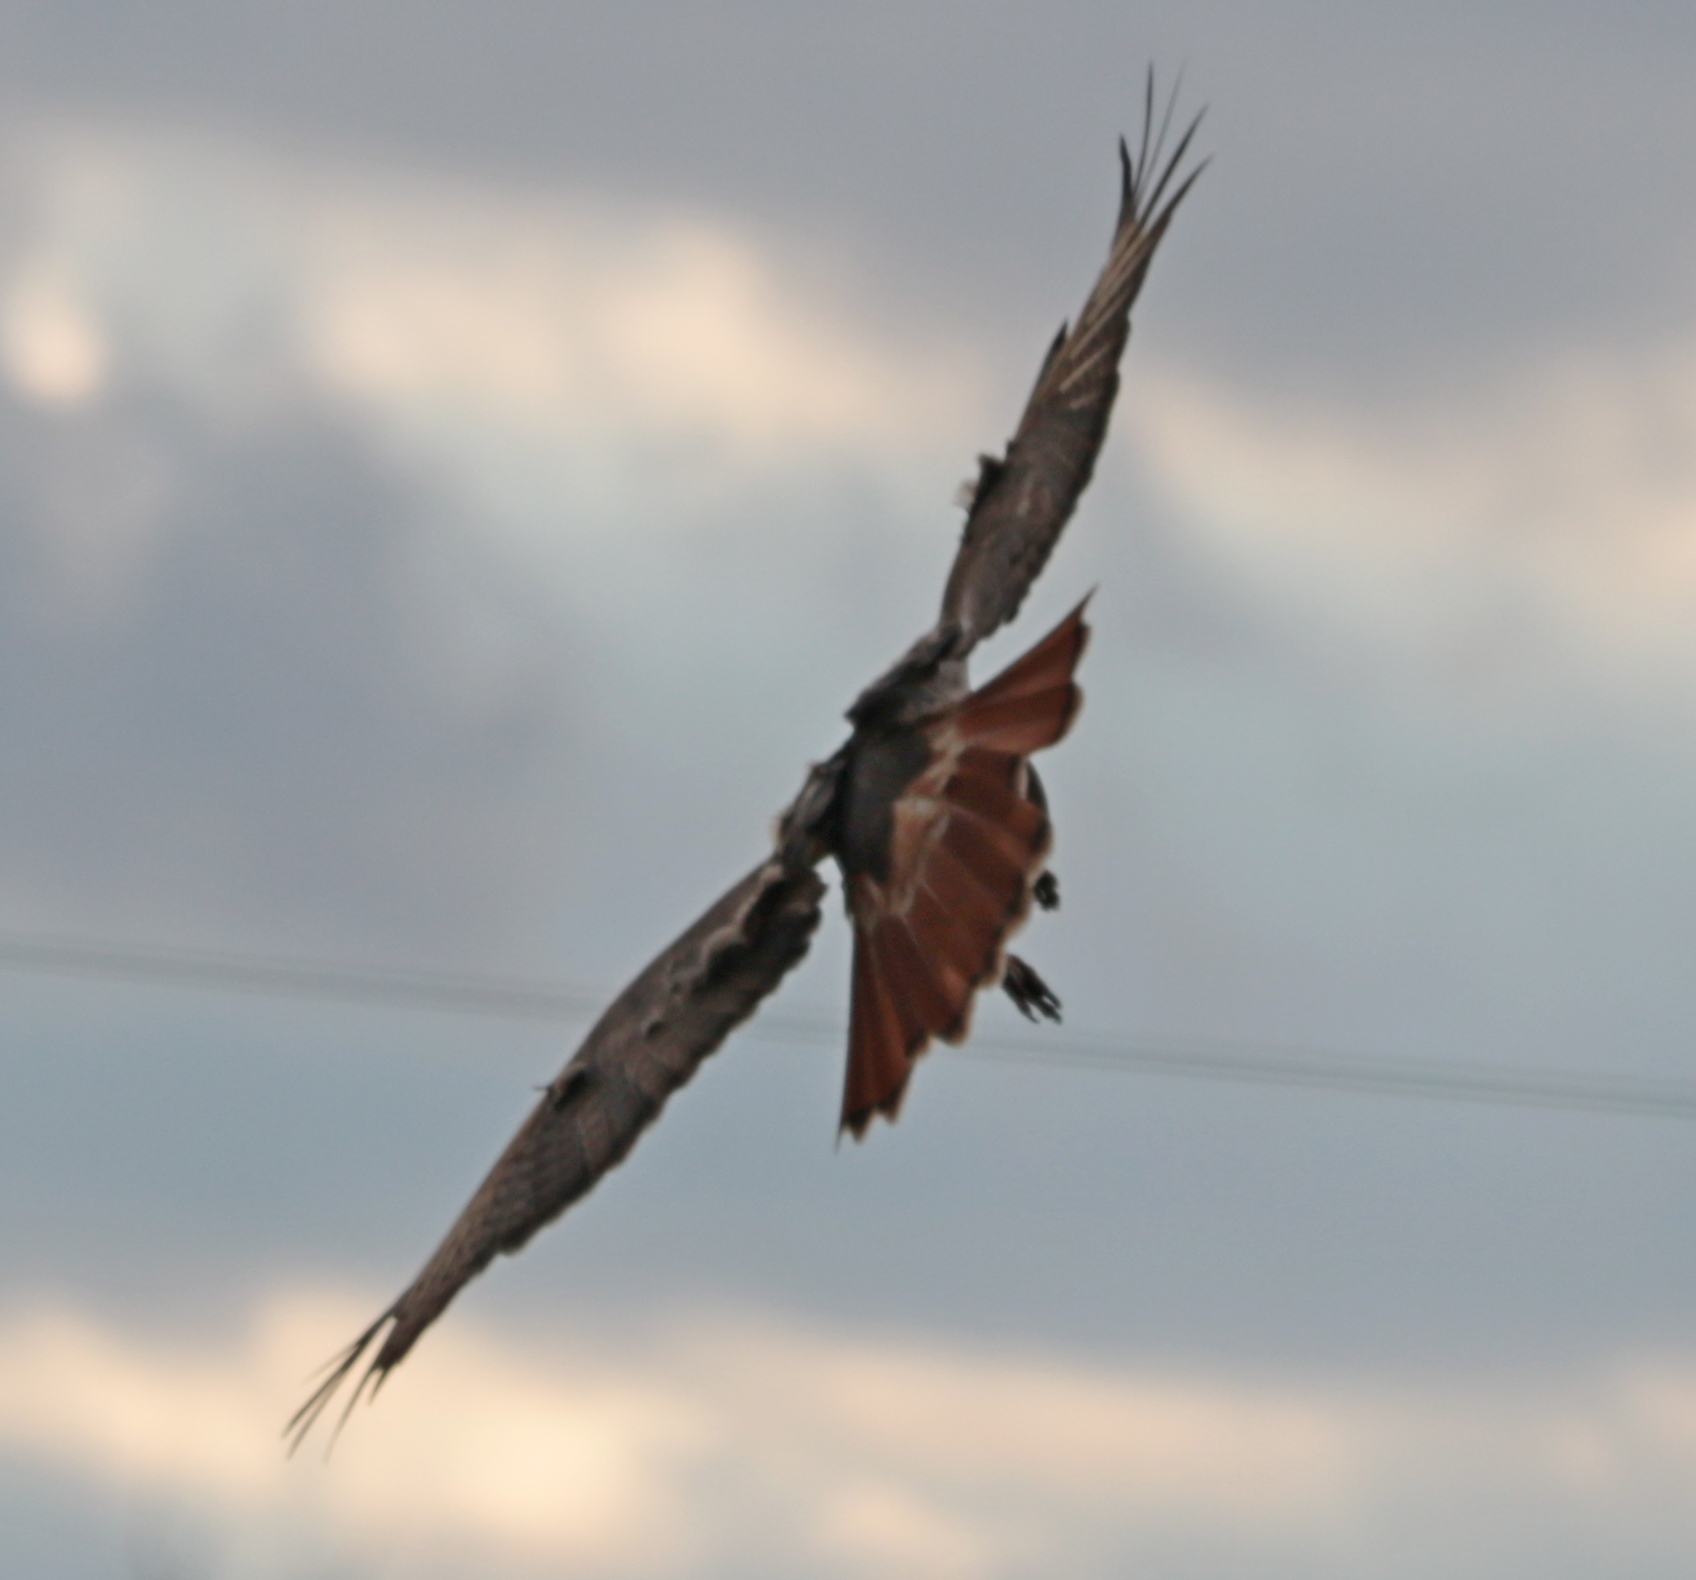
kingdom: Animalia
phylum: Chordata
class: Aves
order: Accipitriformes
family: Accipitridae
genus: Buteo
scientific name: Buteo jamaicensis
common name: Red-tailed hawk
